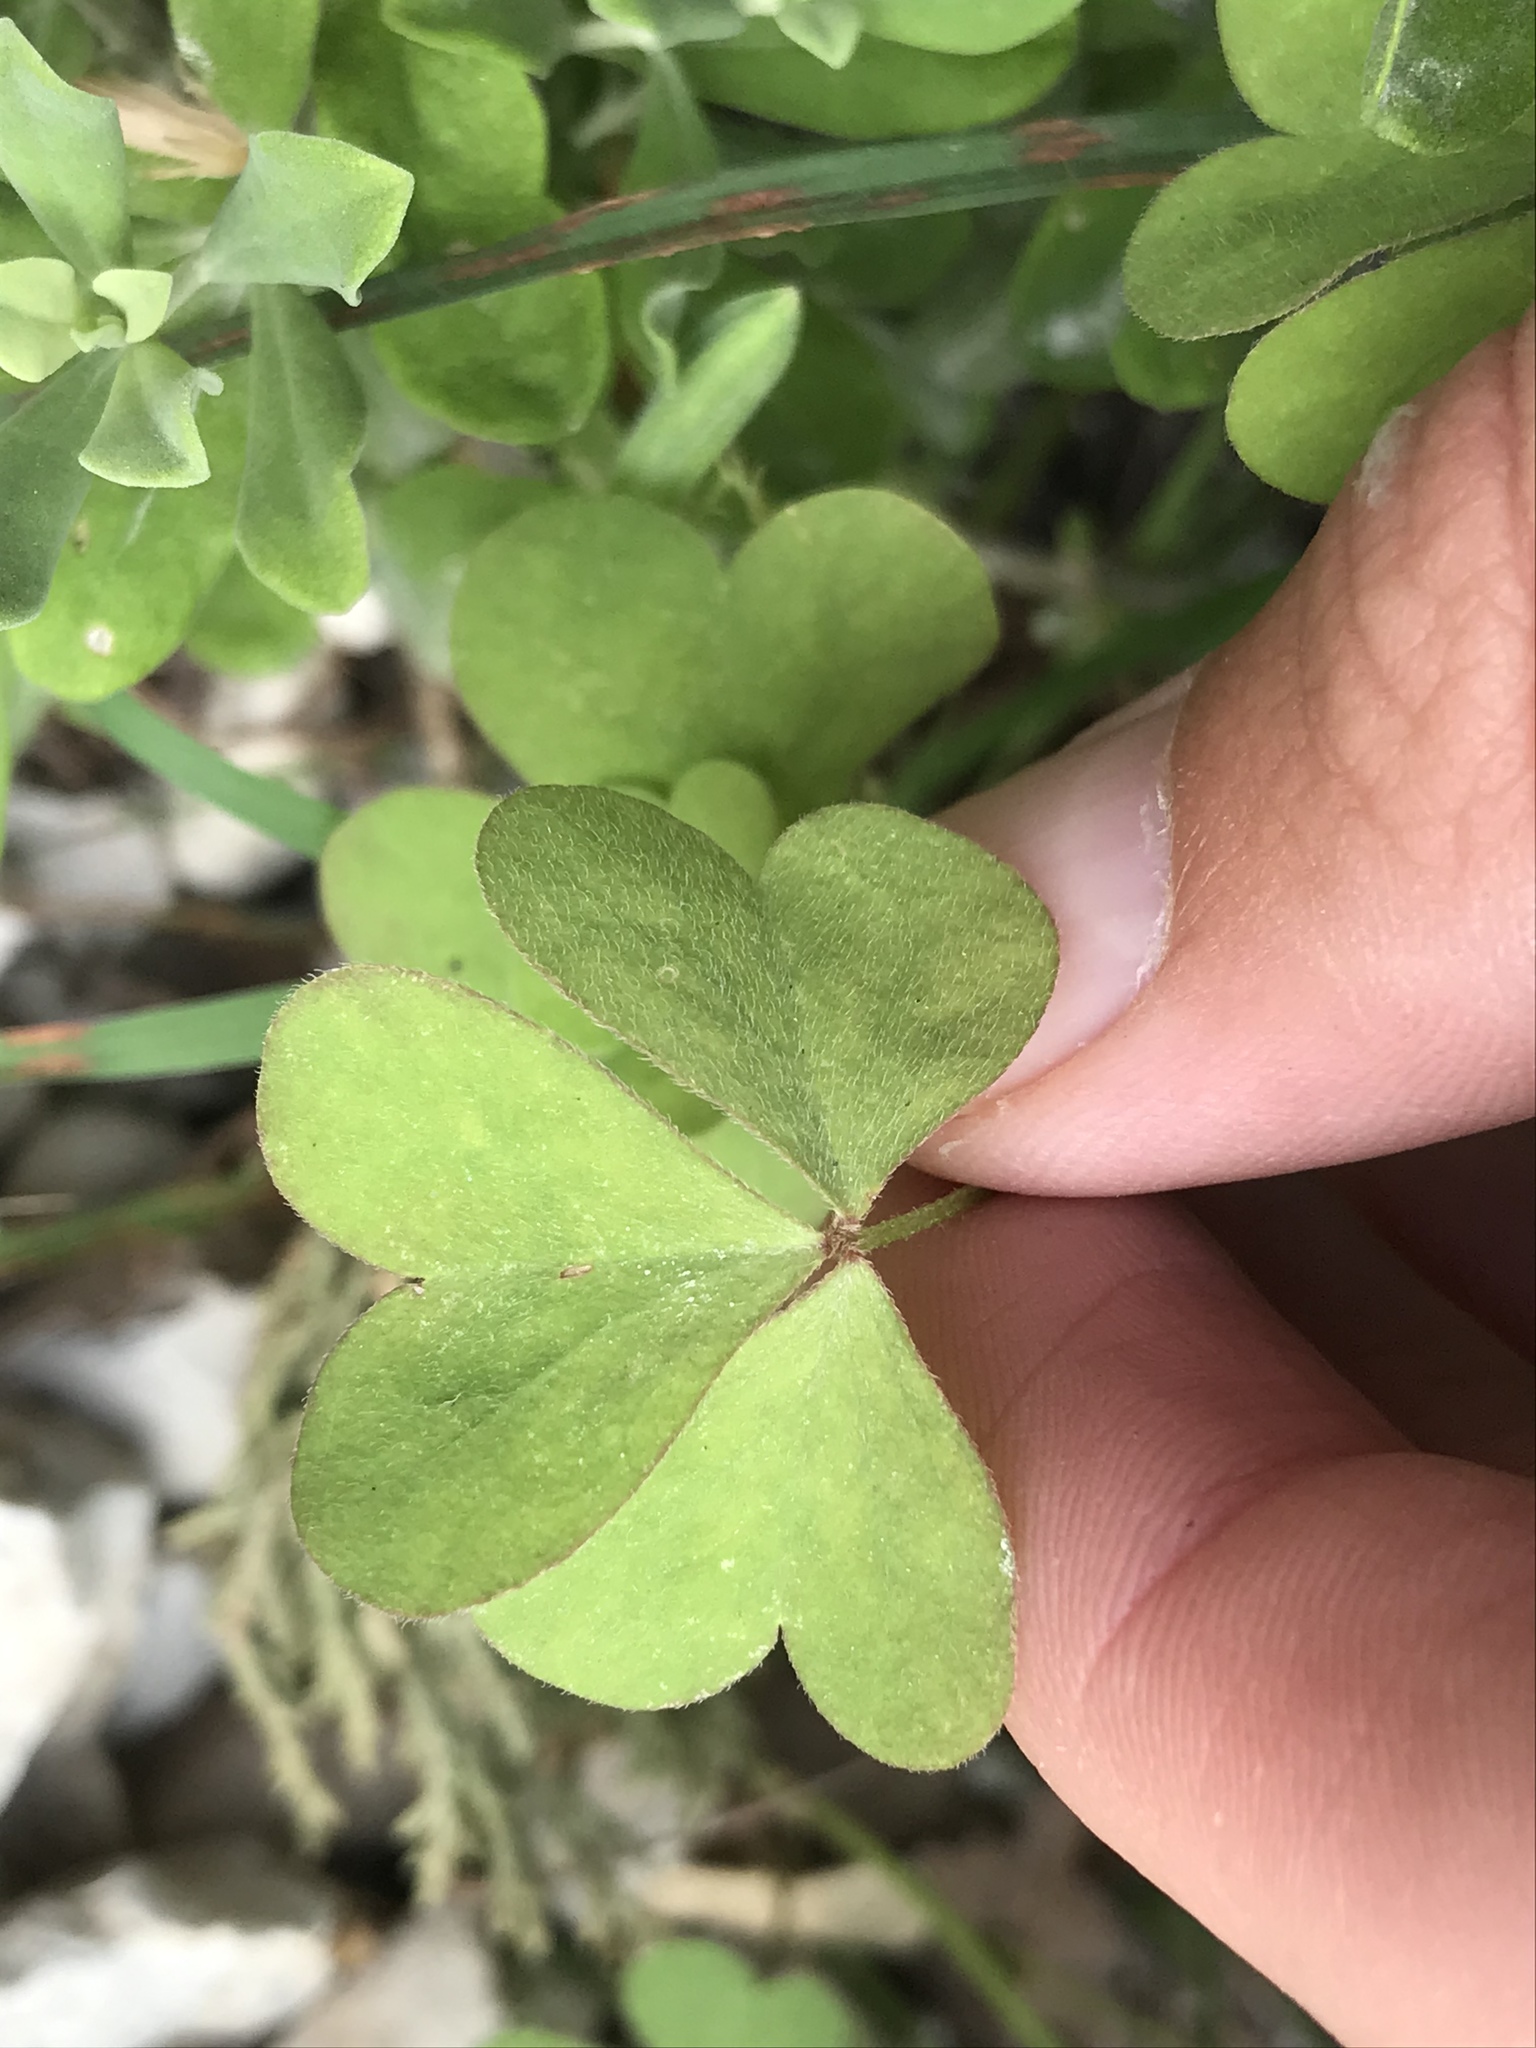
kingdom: Plantae
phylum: Tracheophyta
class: Magnoliopsida
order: Oxalidales
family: Oxalidaceae
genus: Oxalis
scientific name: Oxalis dillenii
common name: Sussex yellow-sorrel
